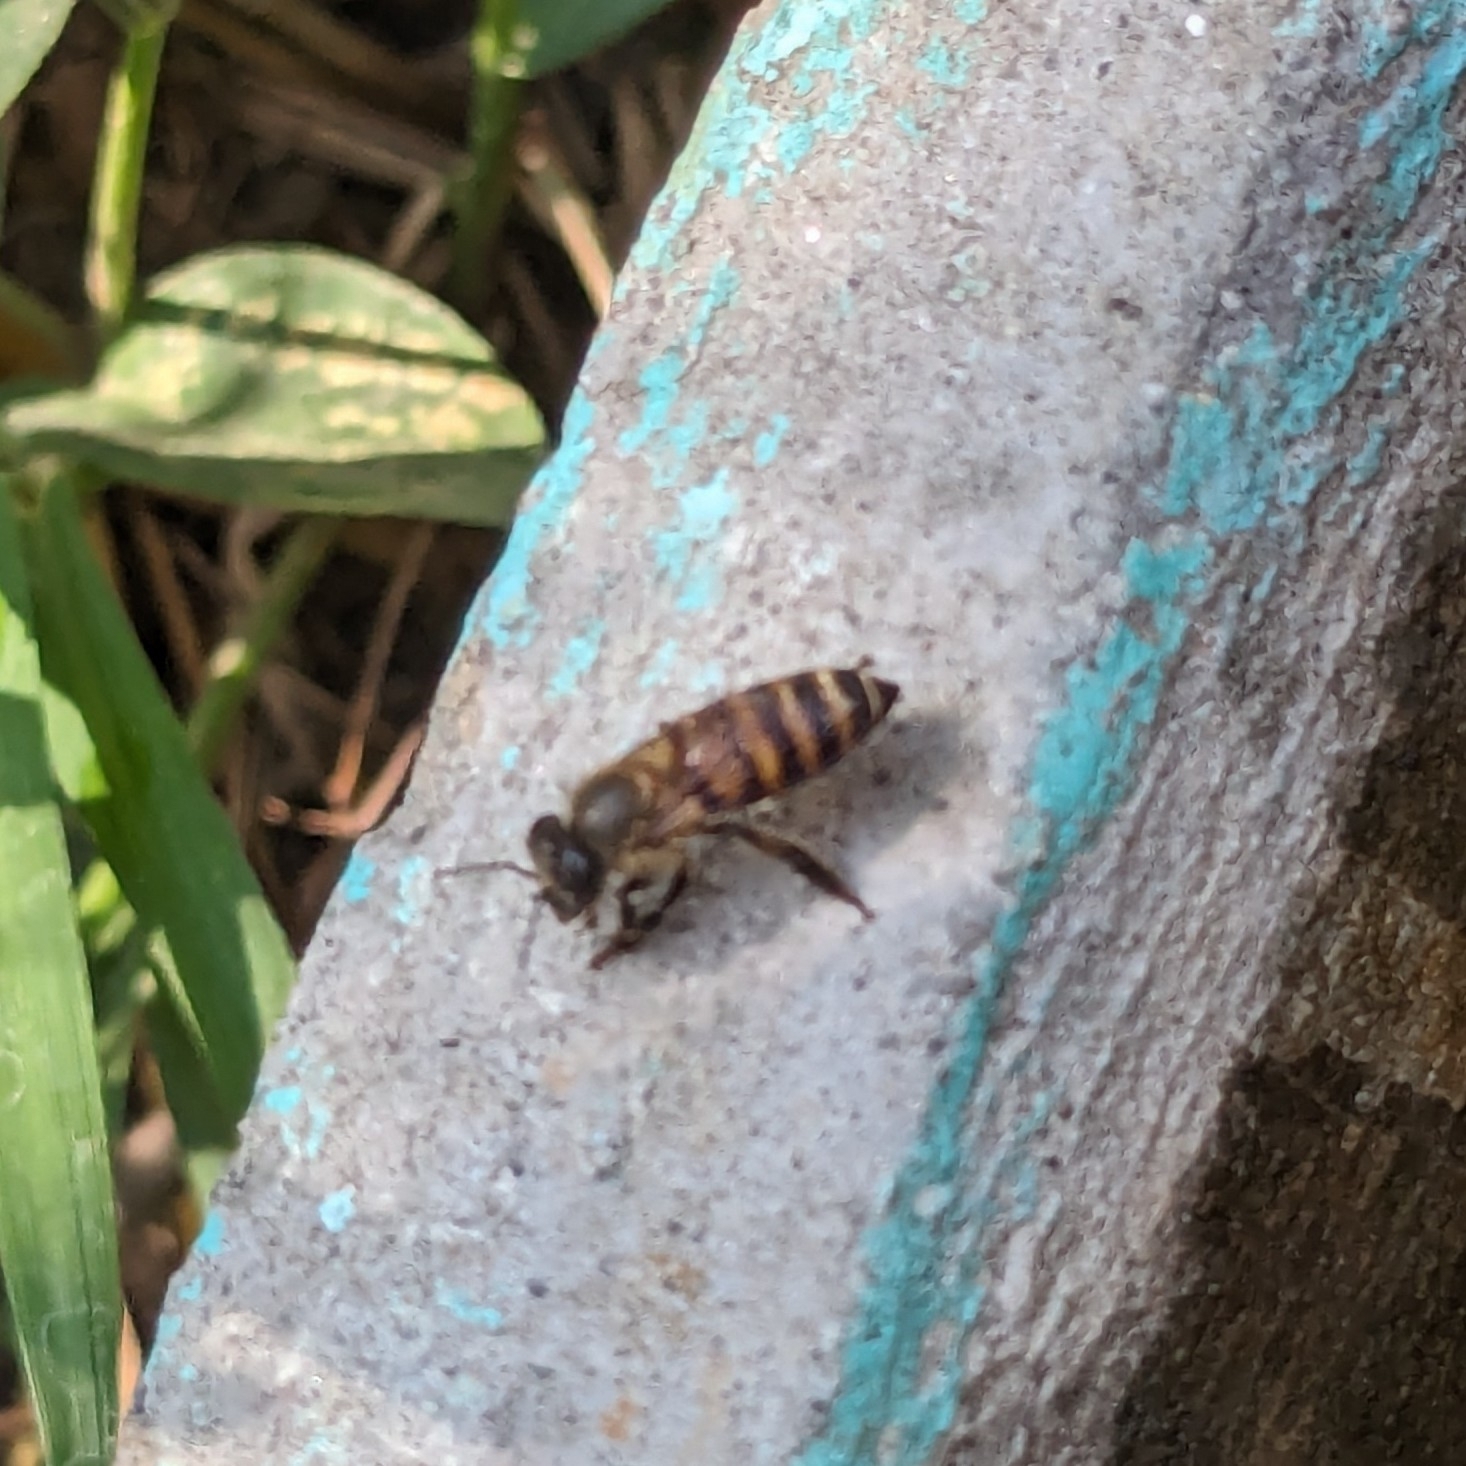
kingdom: Animalia
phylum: Arthropoda
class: Insecta
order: Hymenoptera
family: Apidae
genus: Apis
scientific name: Apis cerana
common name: Honey bee
